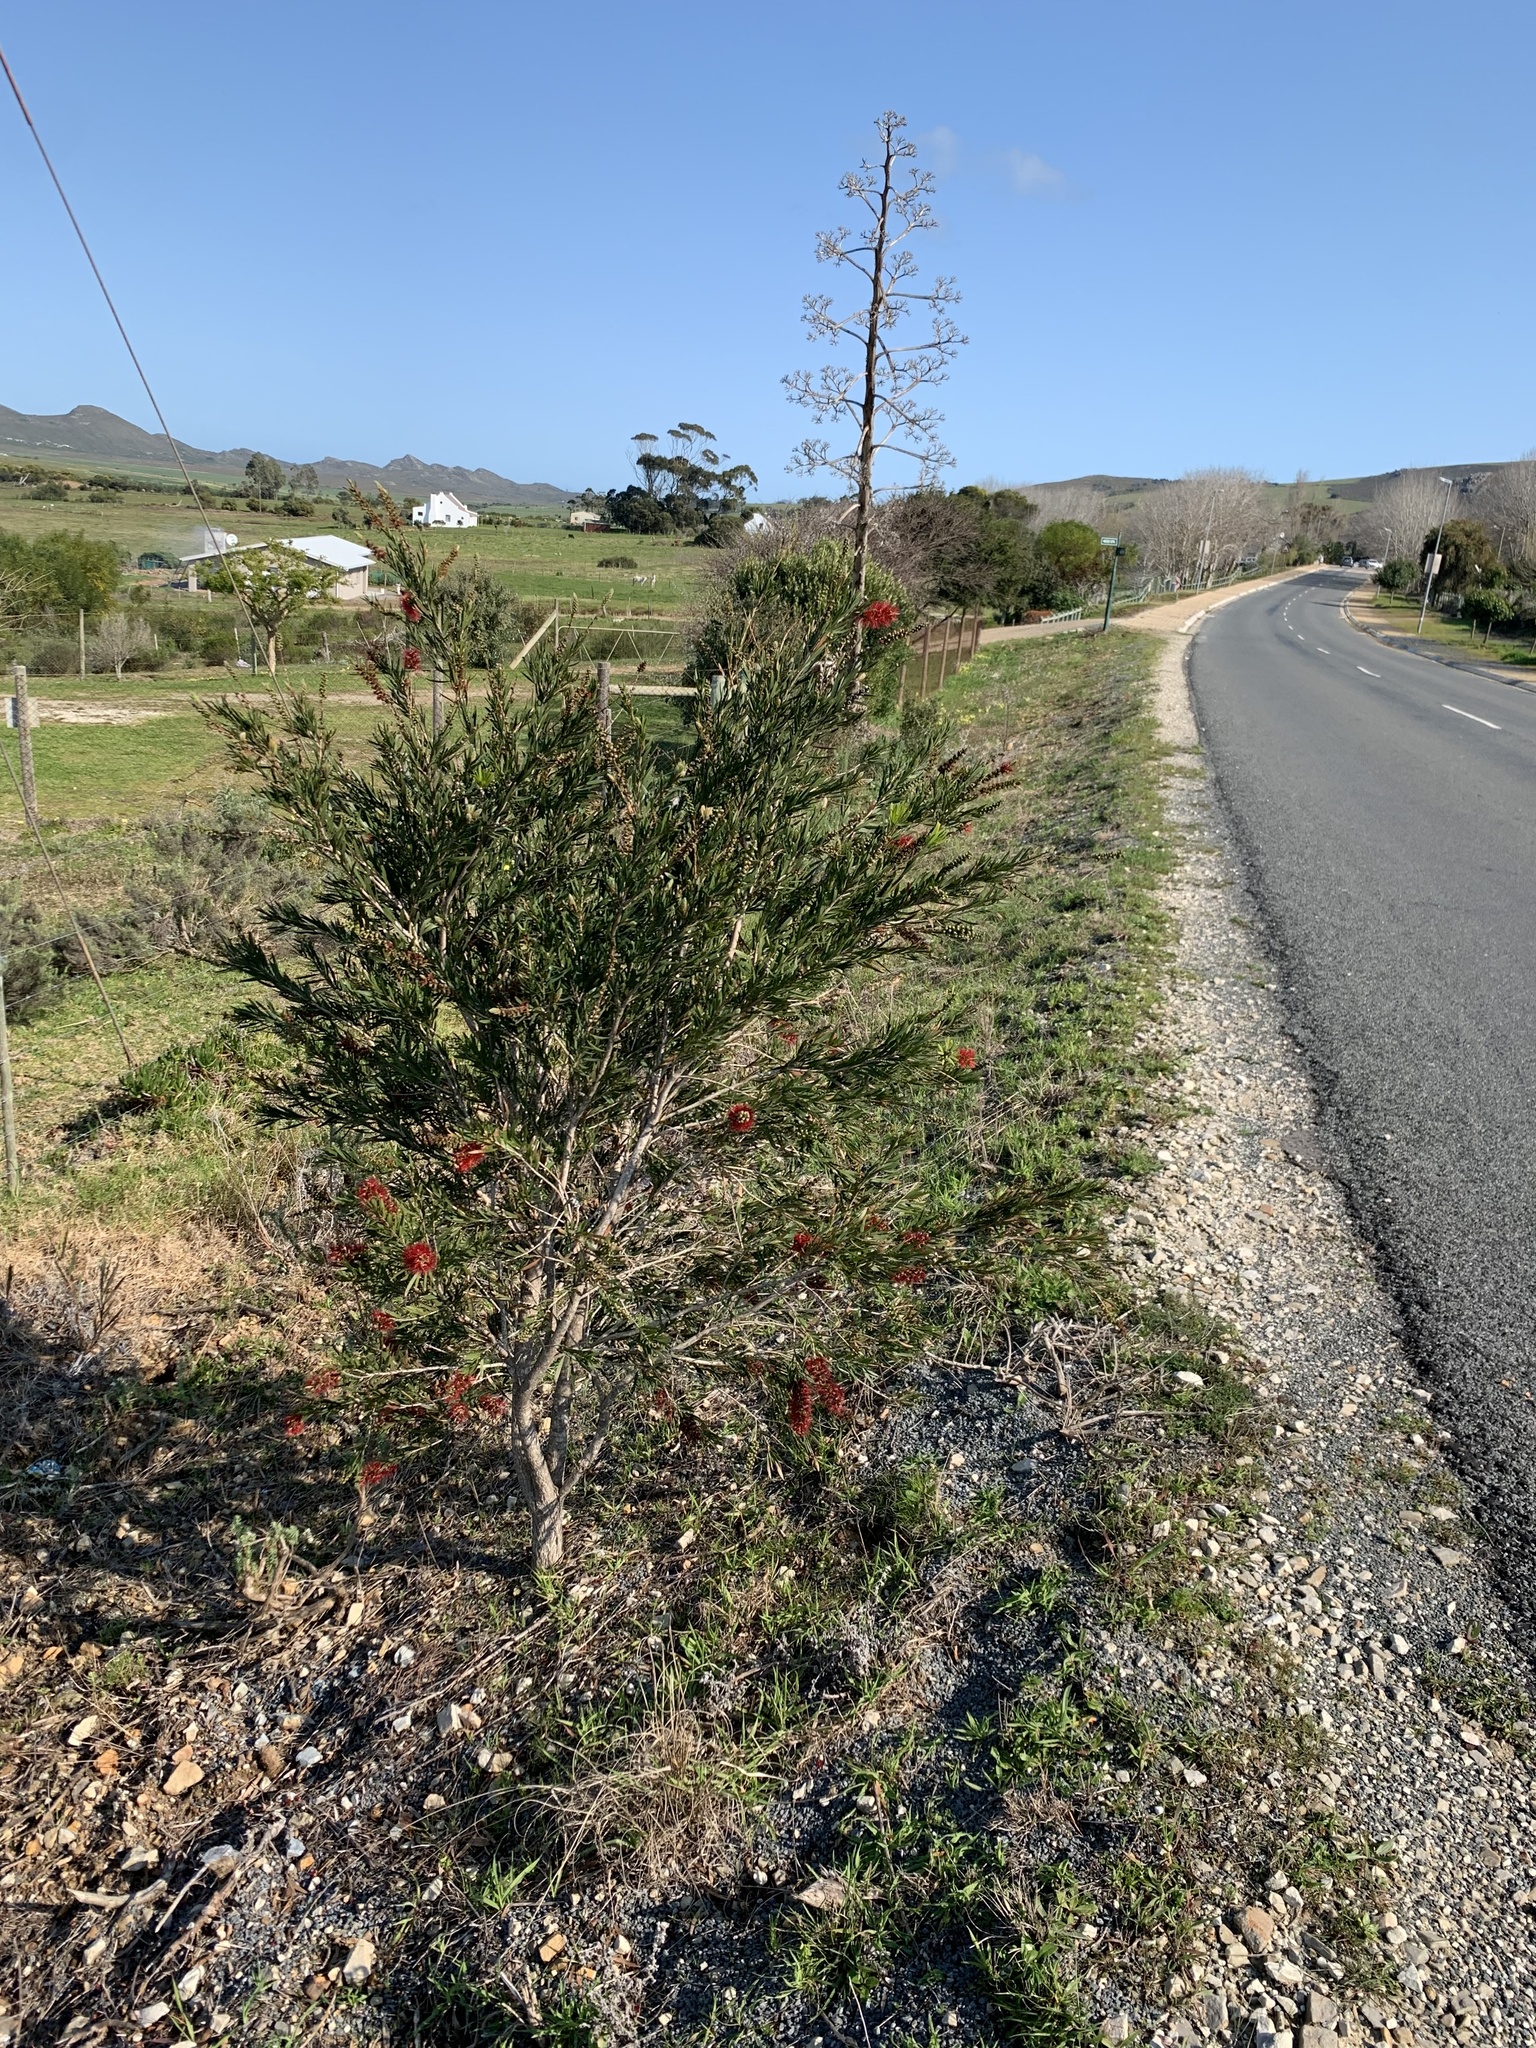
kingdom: Plantae
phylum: Tracheophyta
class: Magnoliopsida
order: Myrtales
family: Myrtaceae
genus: Callistemon
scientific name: Callistemon viminalis
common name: Drooping bottlebrush
